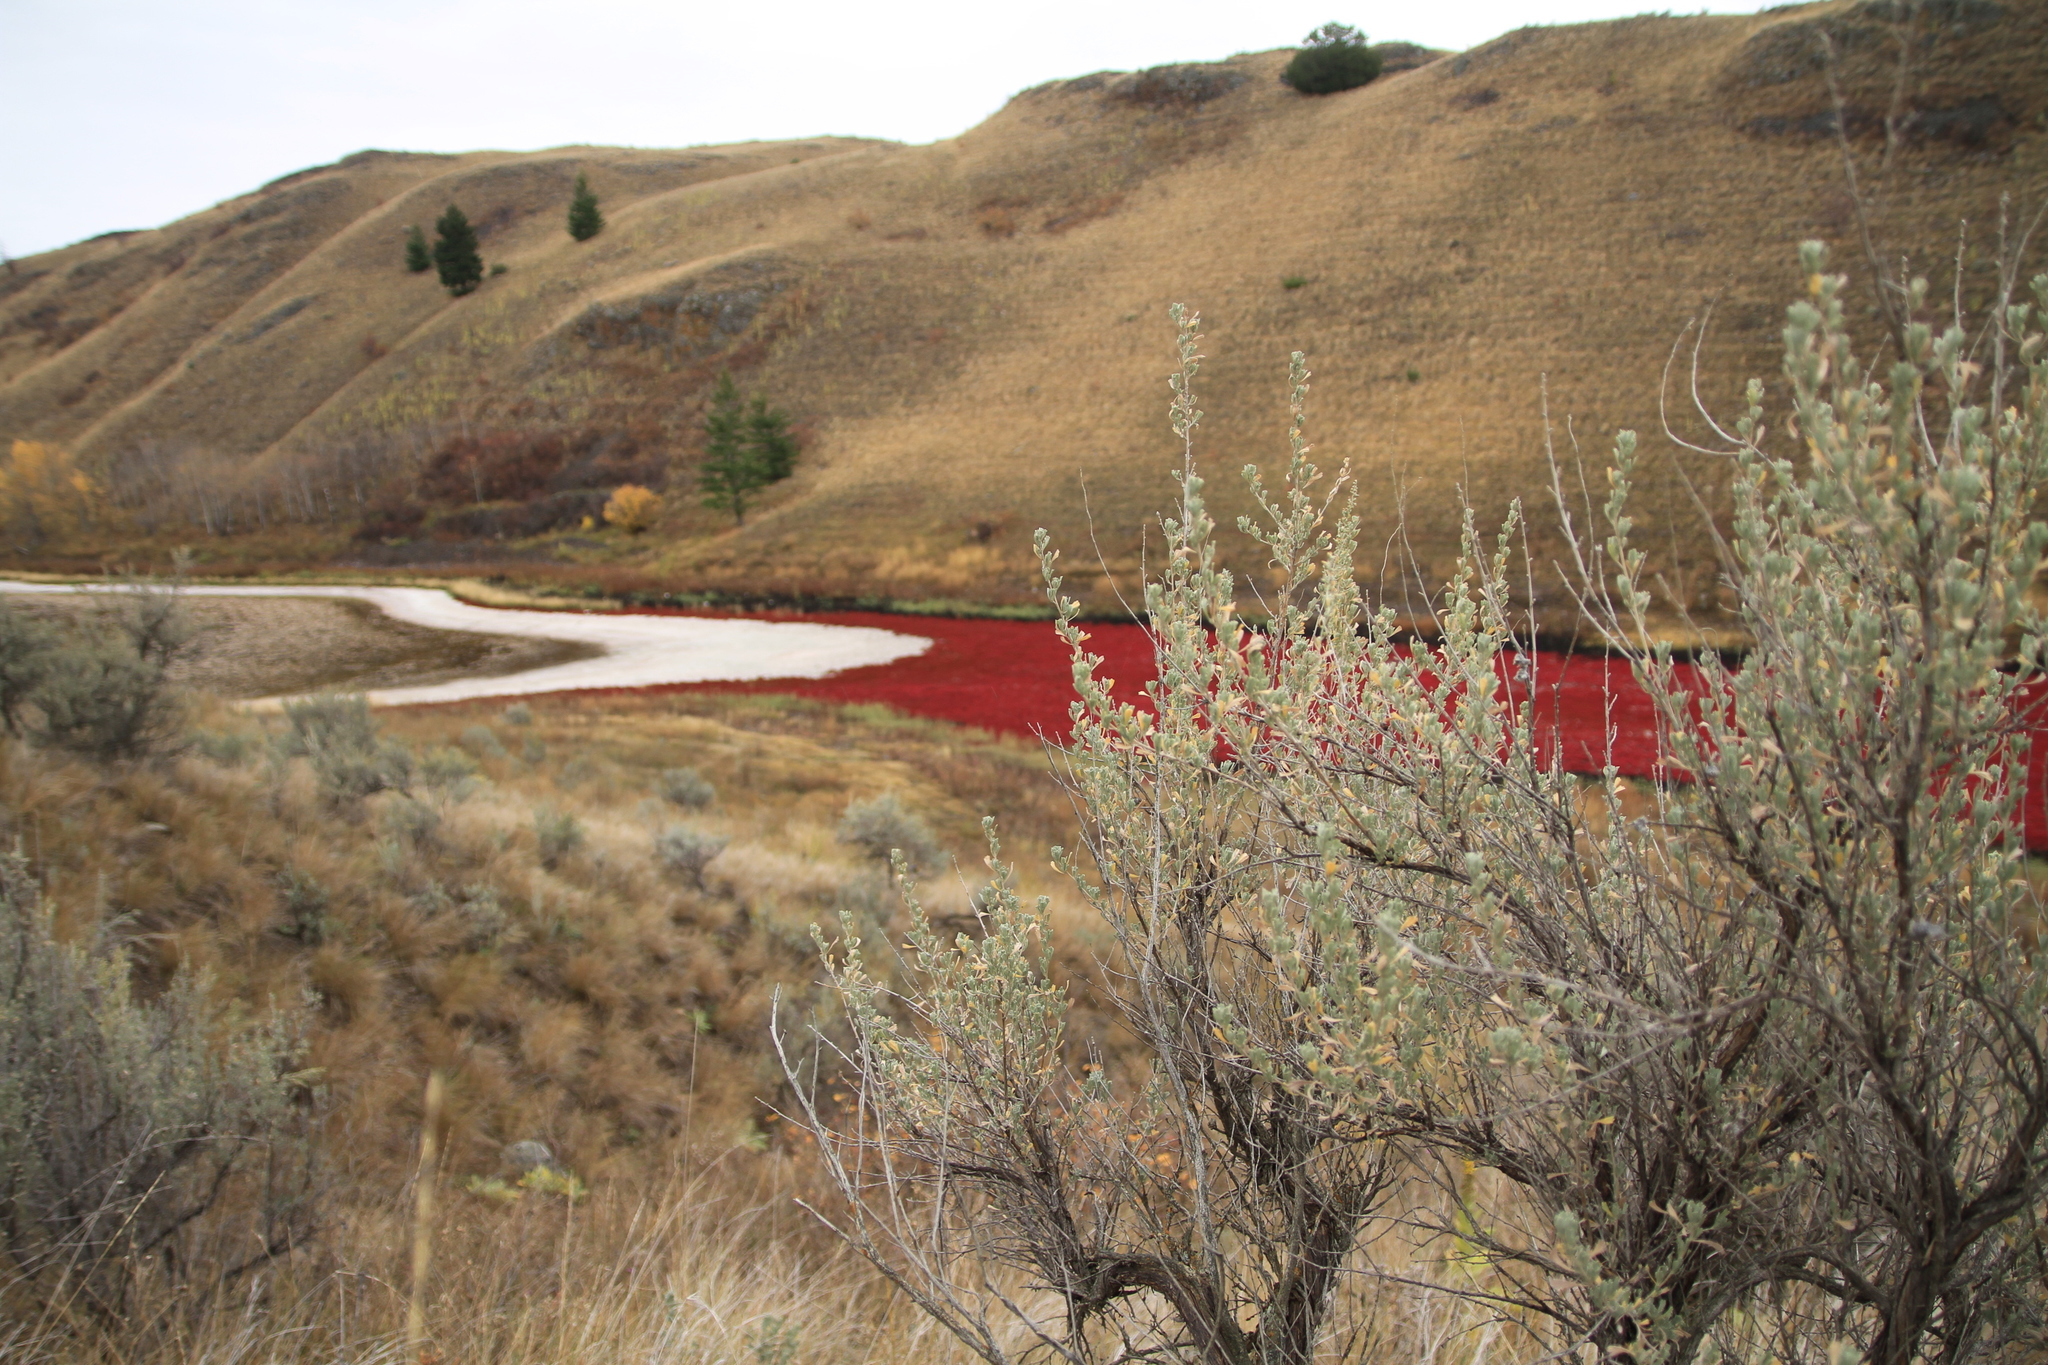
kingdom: Plantae
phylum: Tracheophyta
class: Magnoliopsida
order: Asterales
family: Asteraceae
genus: Artemisia
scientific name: Artemisia tridentata
